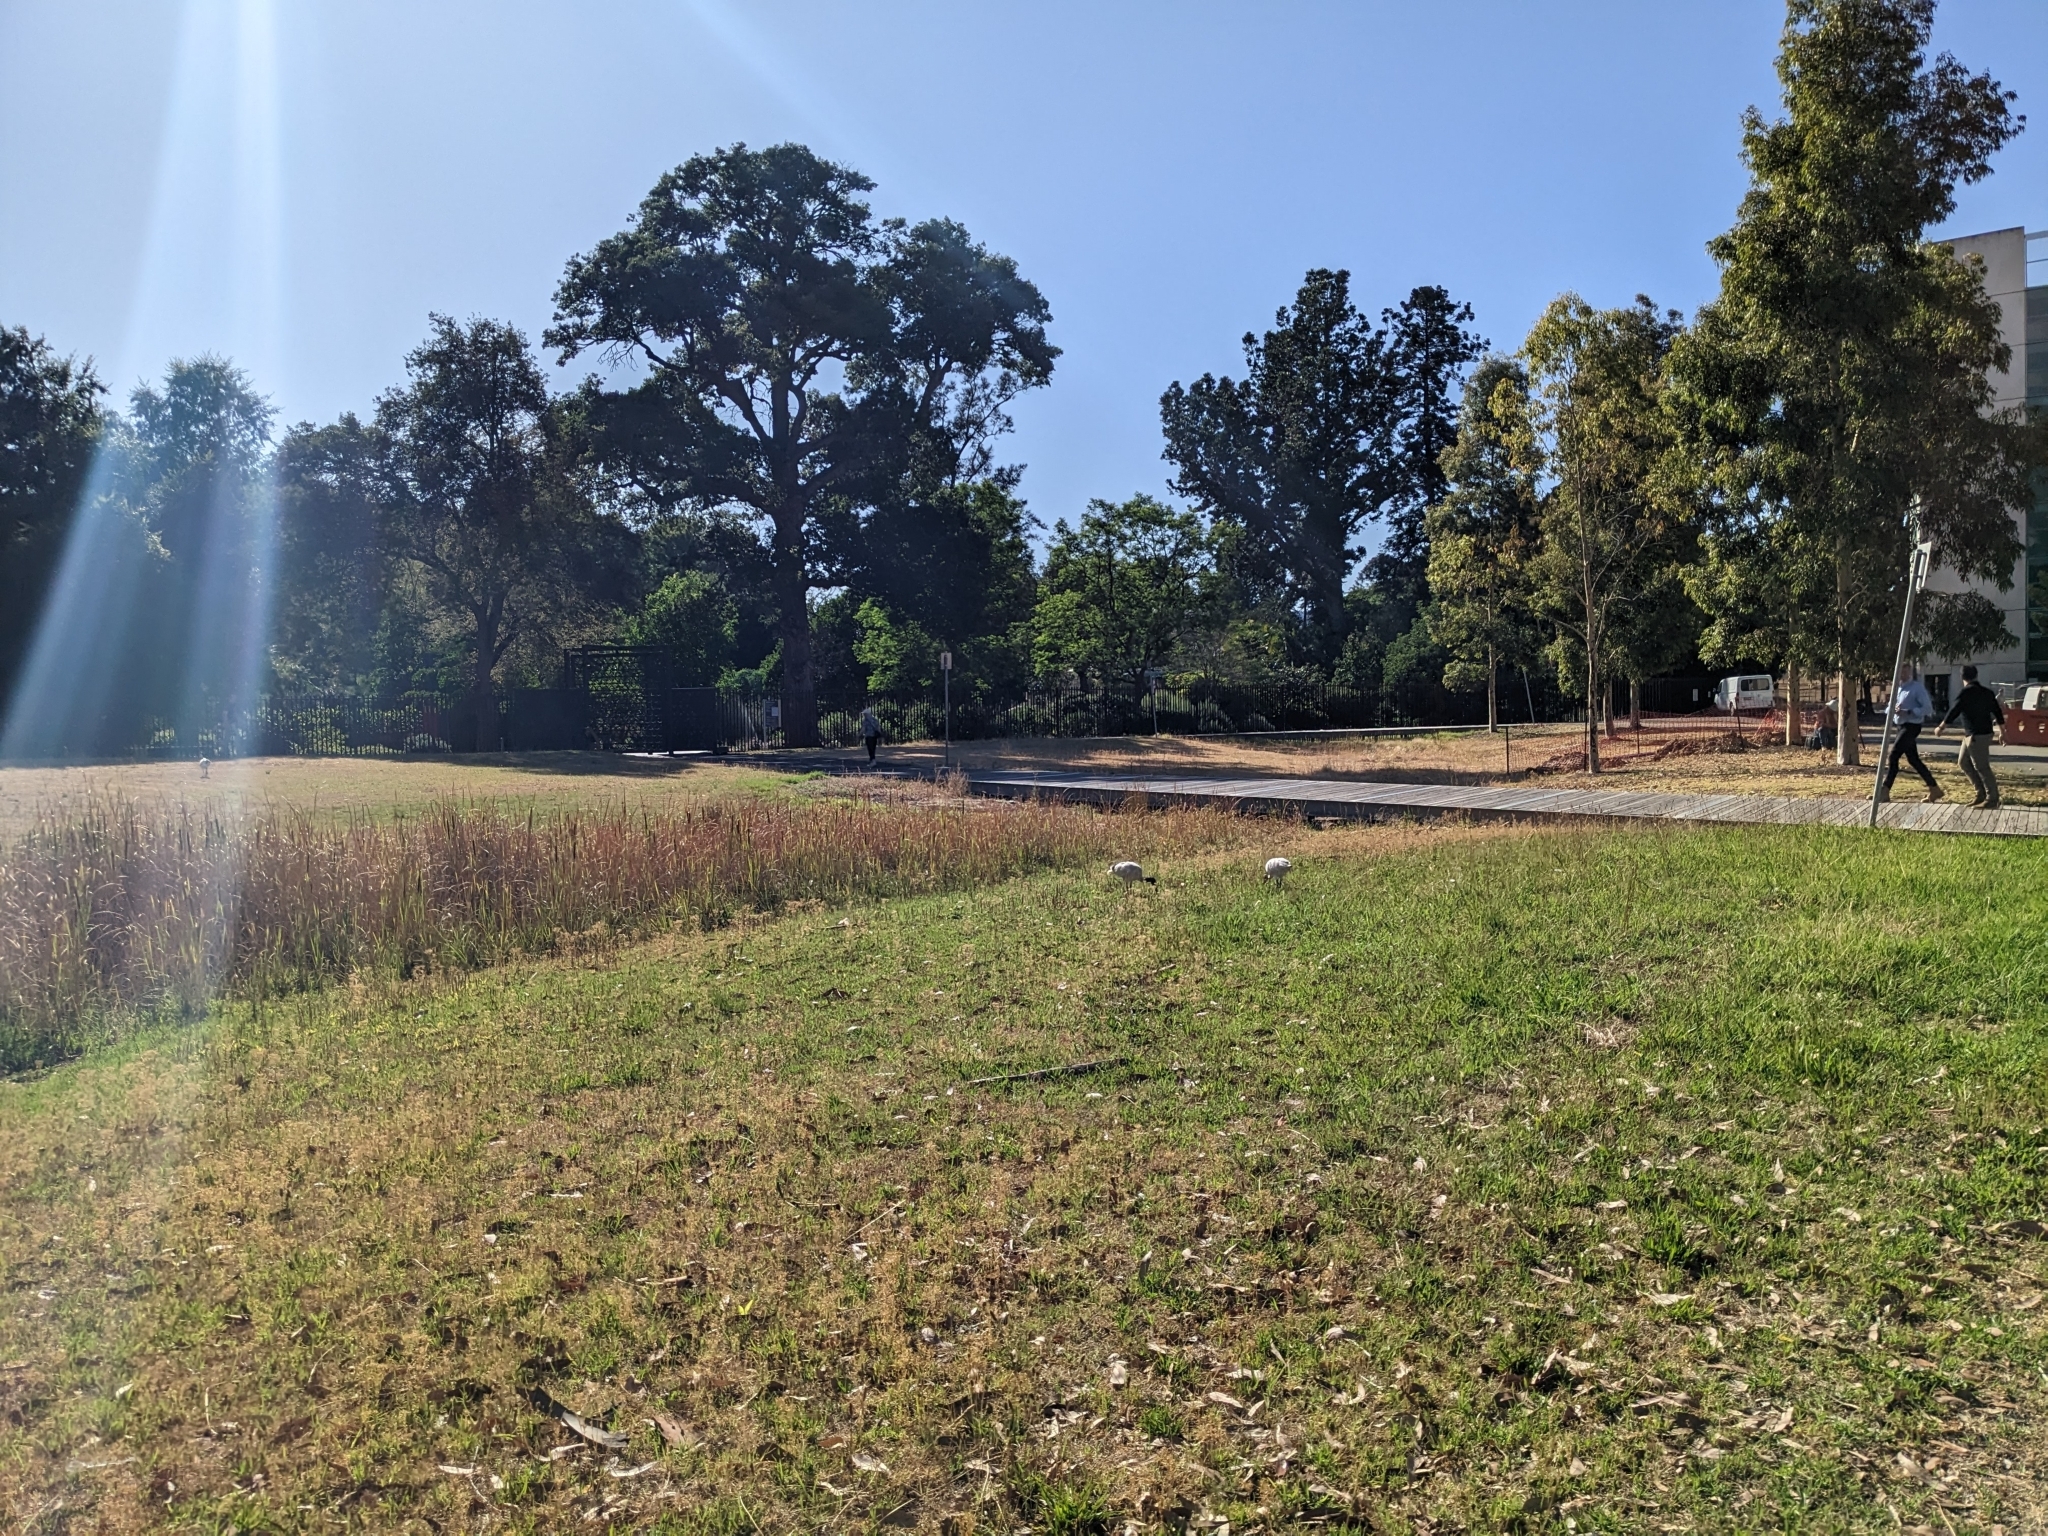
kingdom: Animalia
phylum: Chordata
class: Aves
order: Pelecaniformes
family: Threskiornithidae
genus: Threskiornis
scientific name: Threskiornis molucca
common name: Australian white ibis
